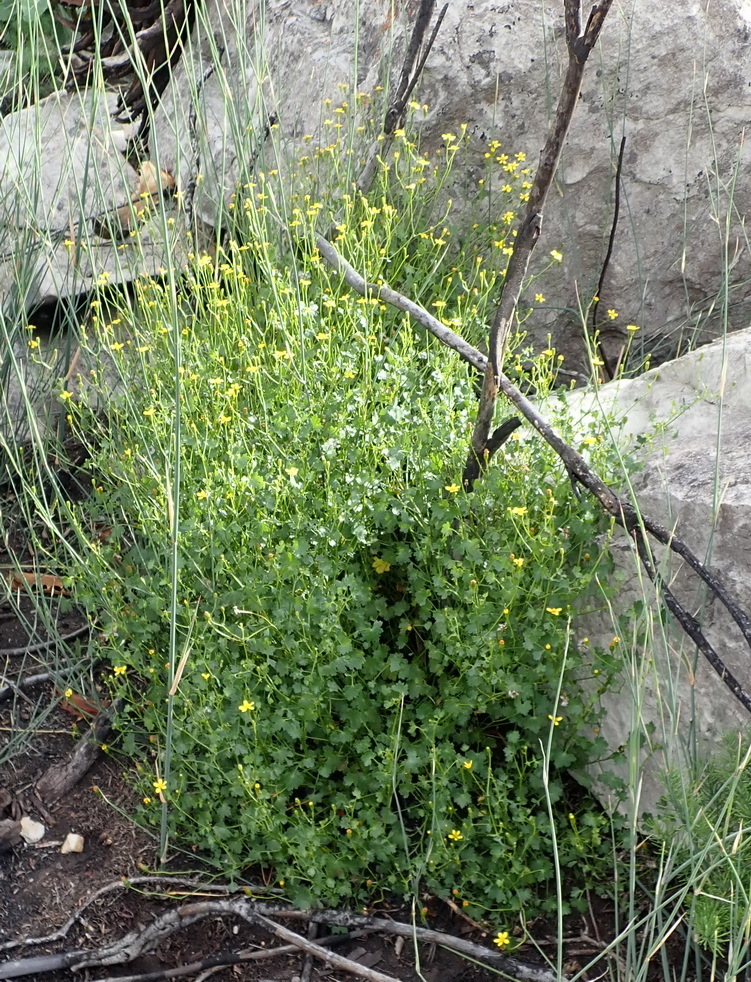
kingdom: Plantae
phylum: Tracheophyta
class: Magnoliopsida
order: Asterales
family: Asteraceae
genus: Cineraria
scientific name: Cineraria lobata
